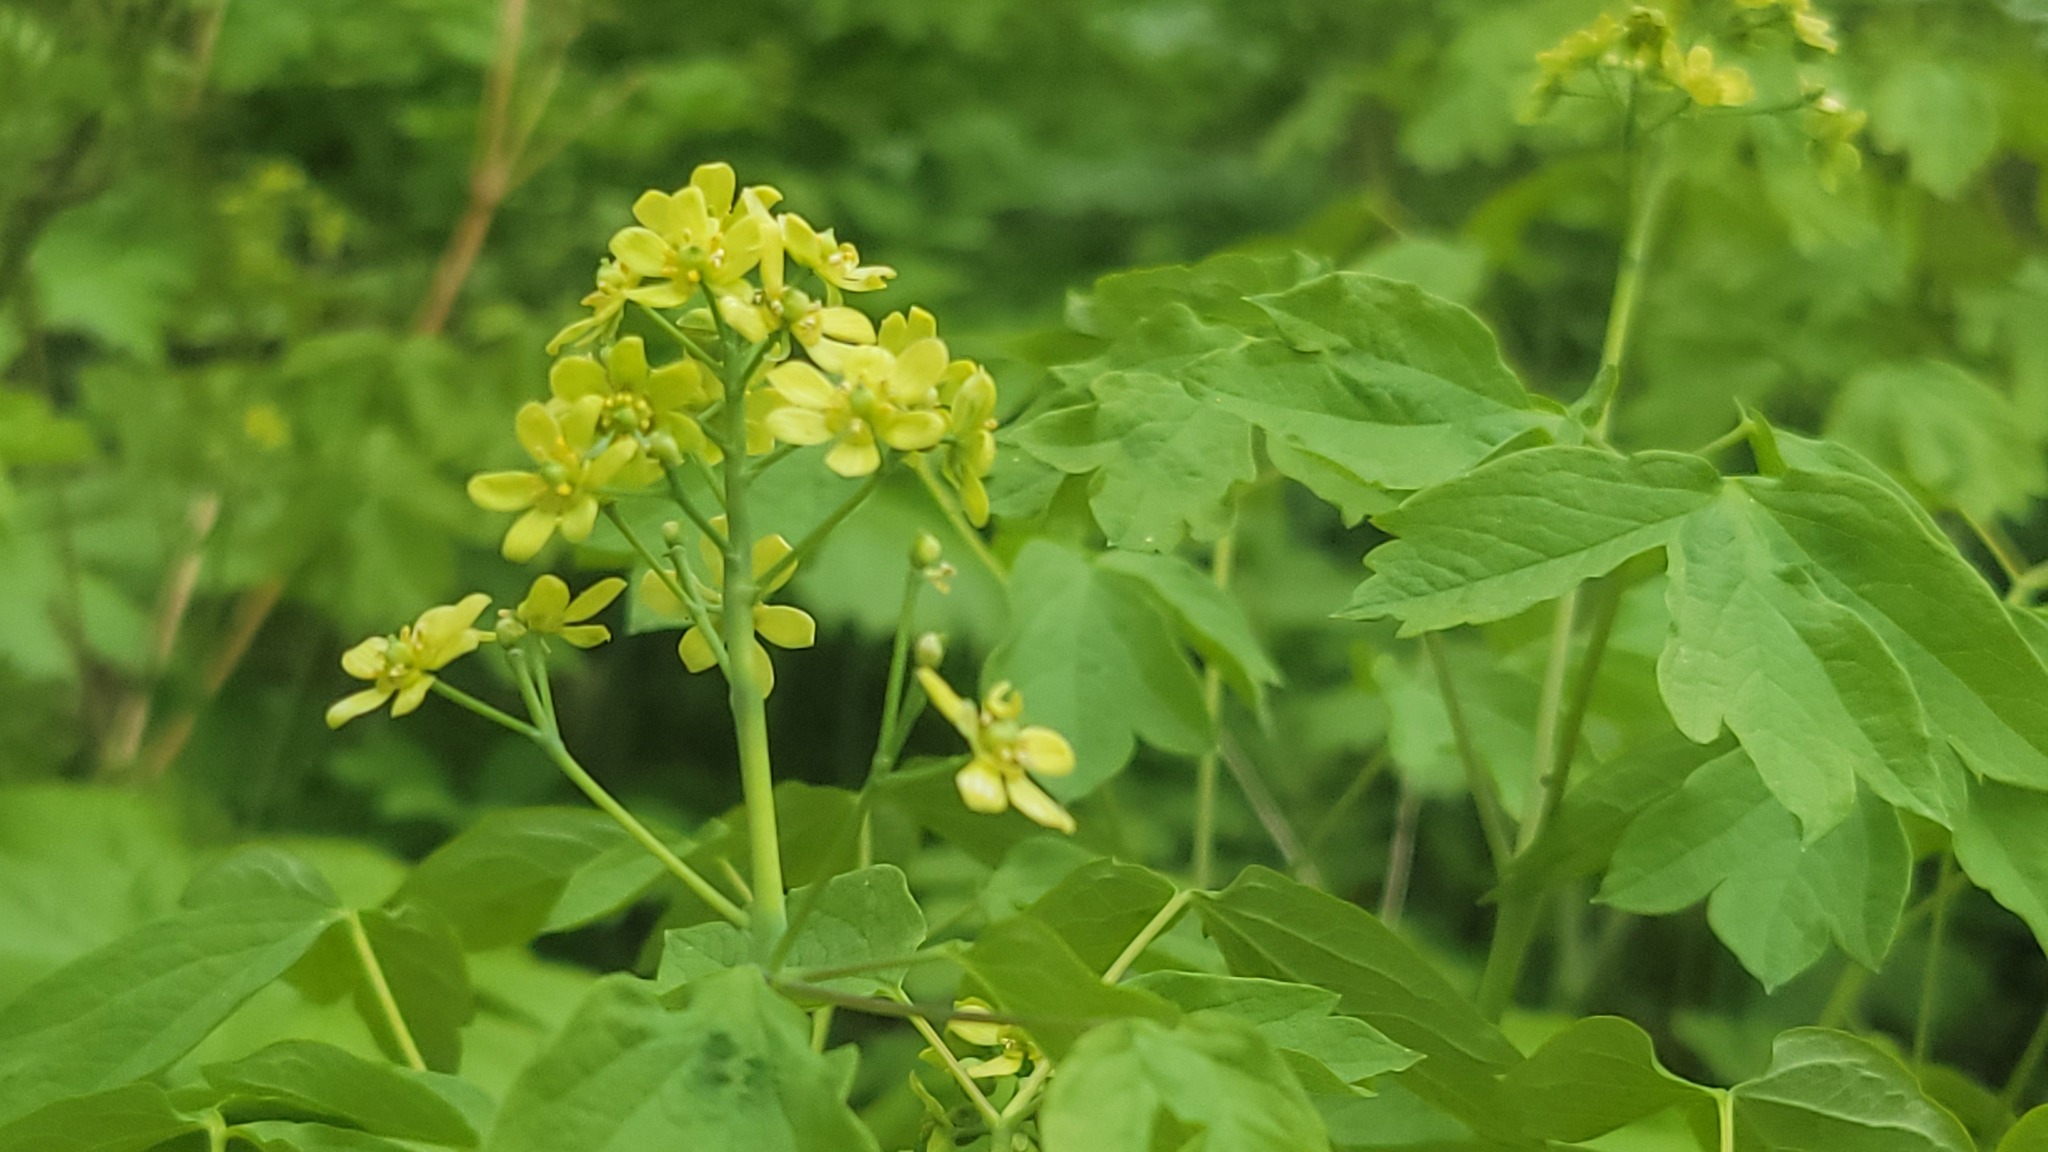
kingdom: Plantae
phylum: Tracheophyta
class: Magnoliopsida
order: Ranunculales
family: Berberidaceae
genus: Caulophyllum
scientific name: Caulophyllum thalictroides
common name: Blue cohosh
